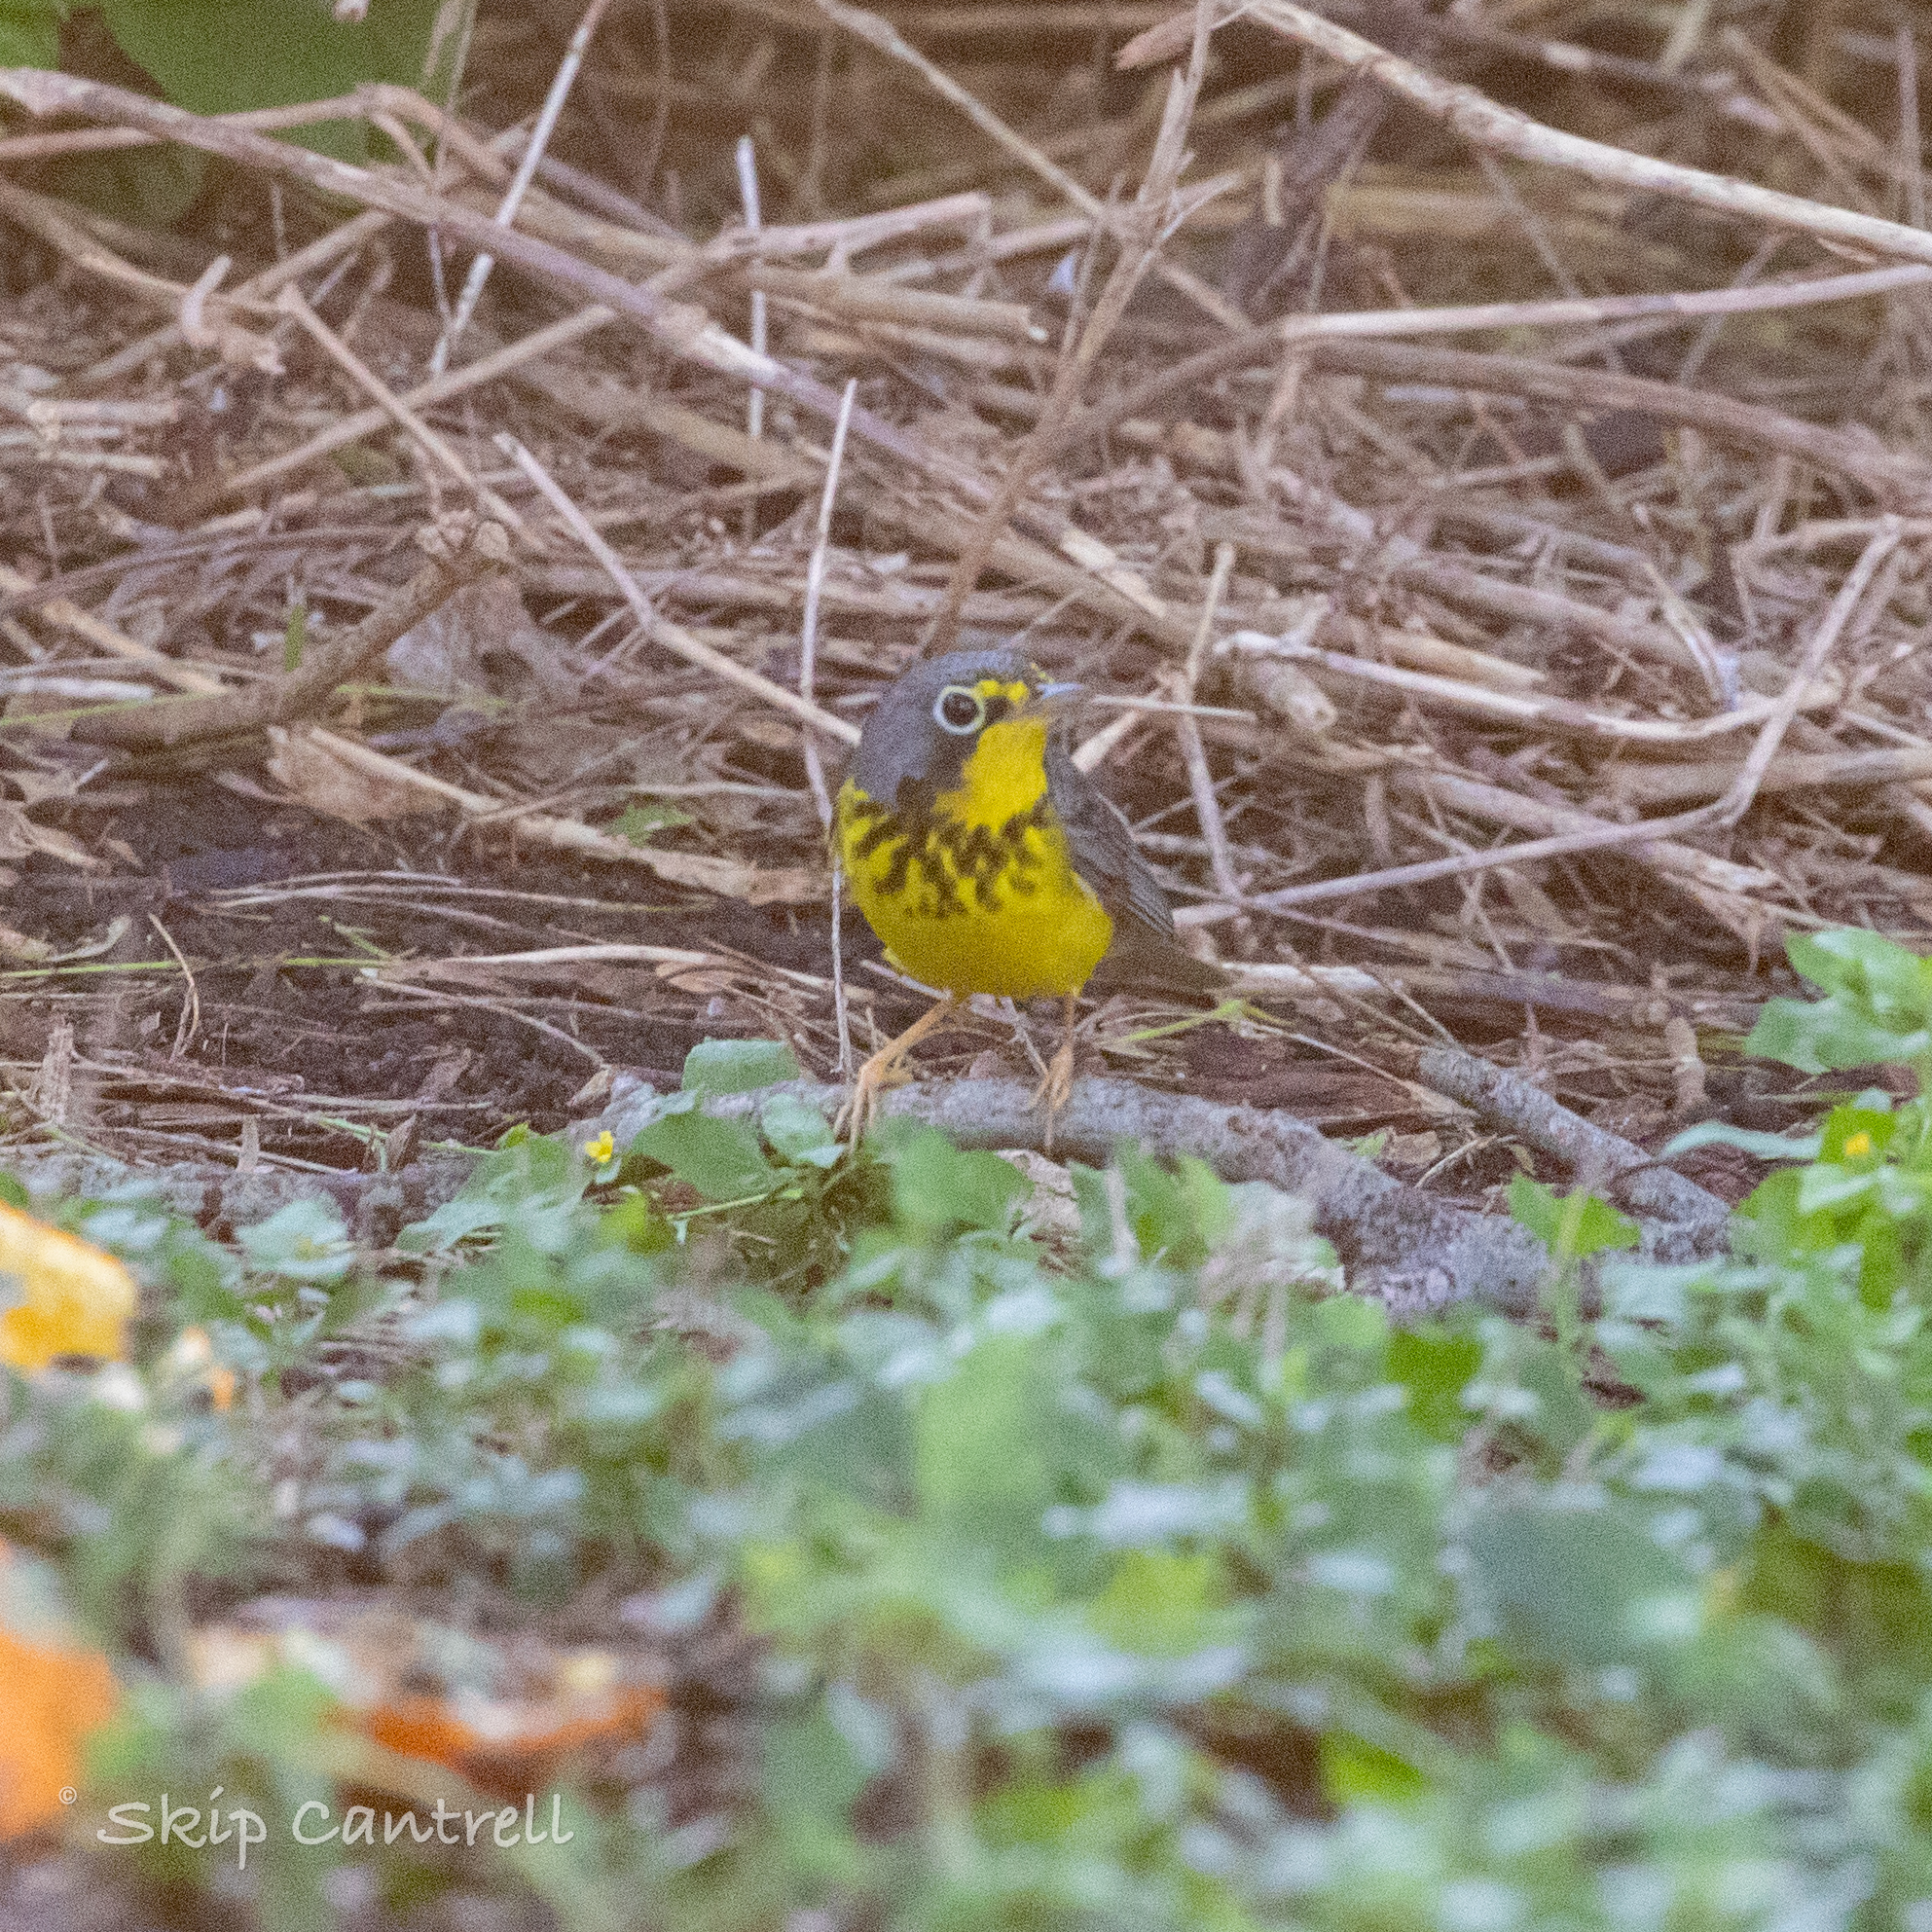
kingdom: Animalia
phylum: Chordata
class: Aves
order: Passeriformes
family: Parulidae
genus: Cardellina
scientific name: Cardellina canadensis
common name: Canada warbler
